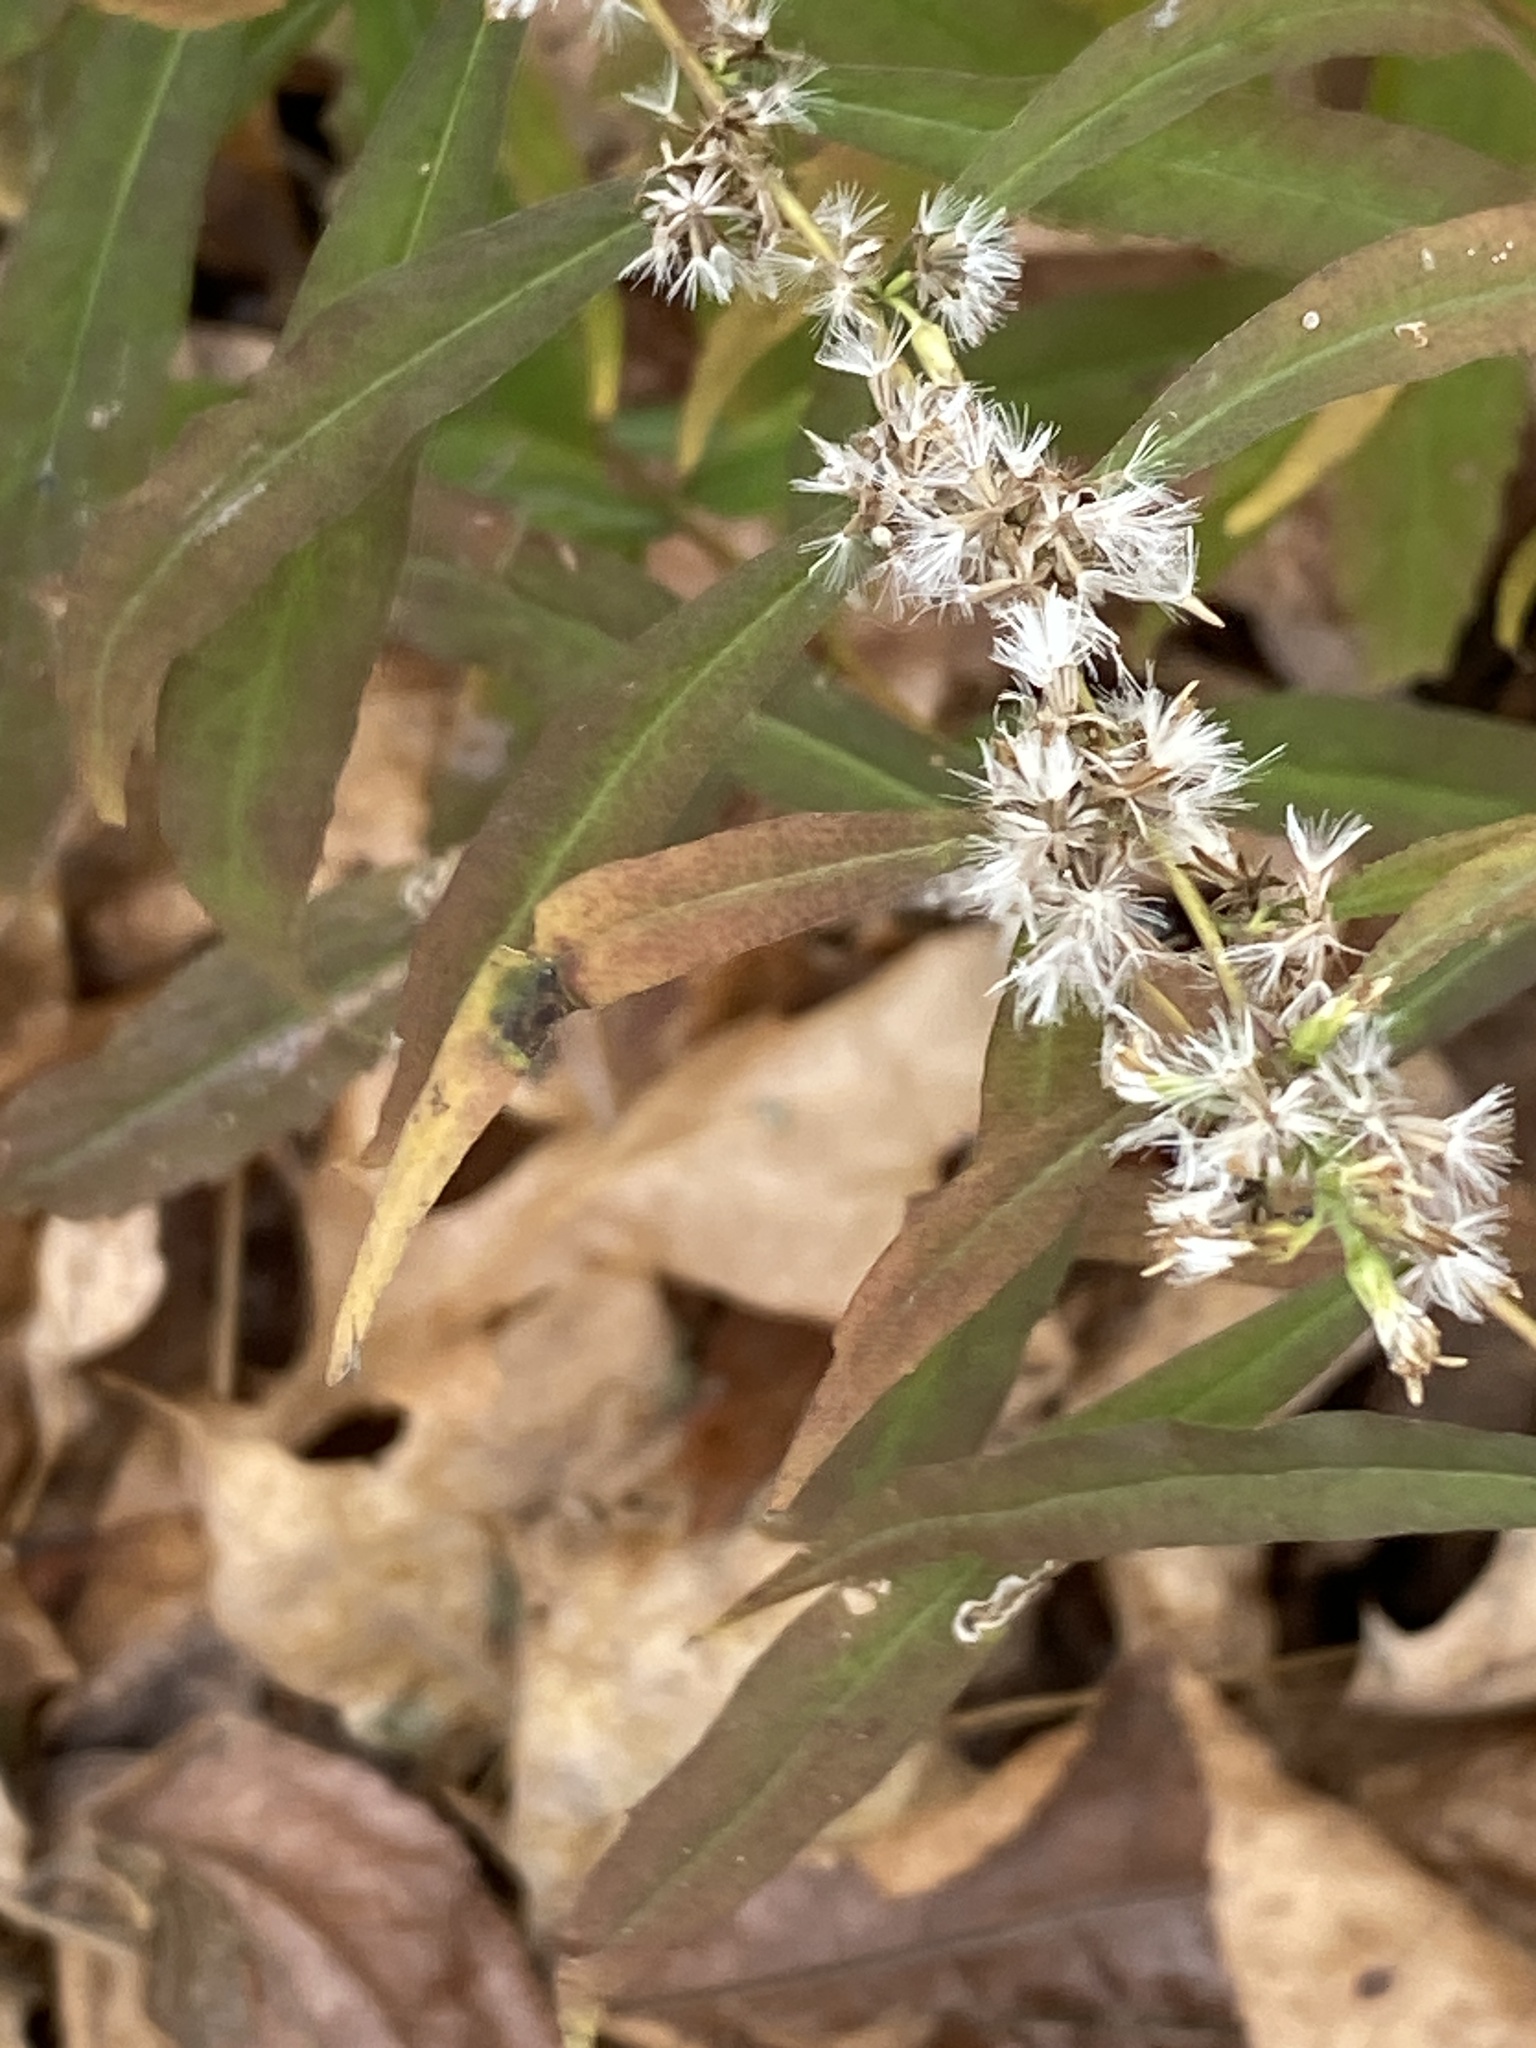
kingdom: Plantae
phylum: Tracheophyta
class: Magnoliopsida
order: Asterales
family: Asteraceae
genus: Solidago
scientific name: Solidago caesia
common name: Woodland goldenrod
